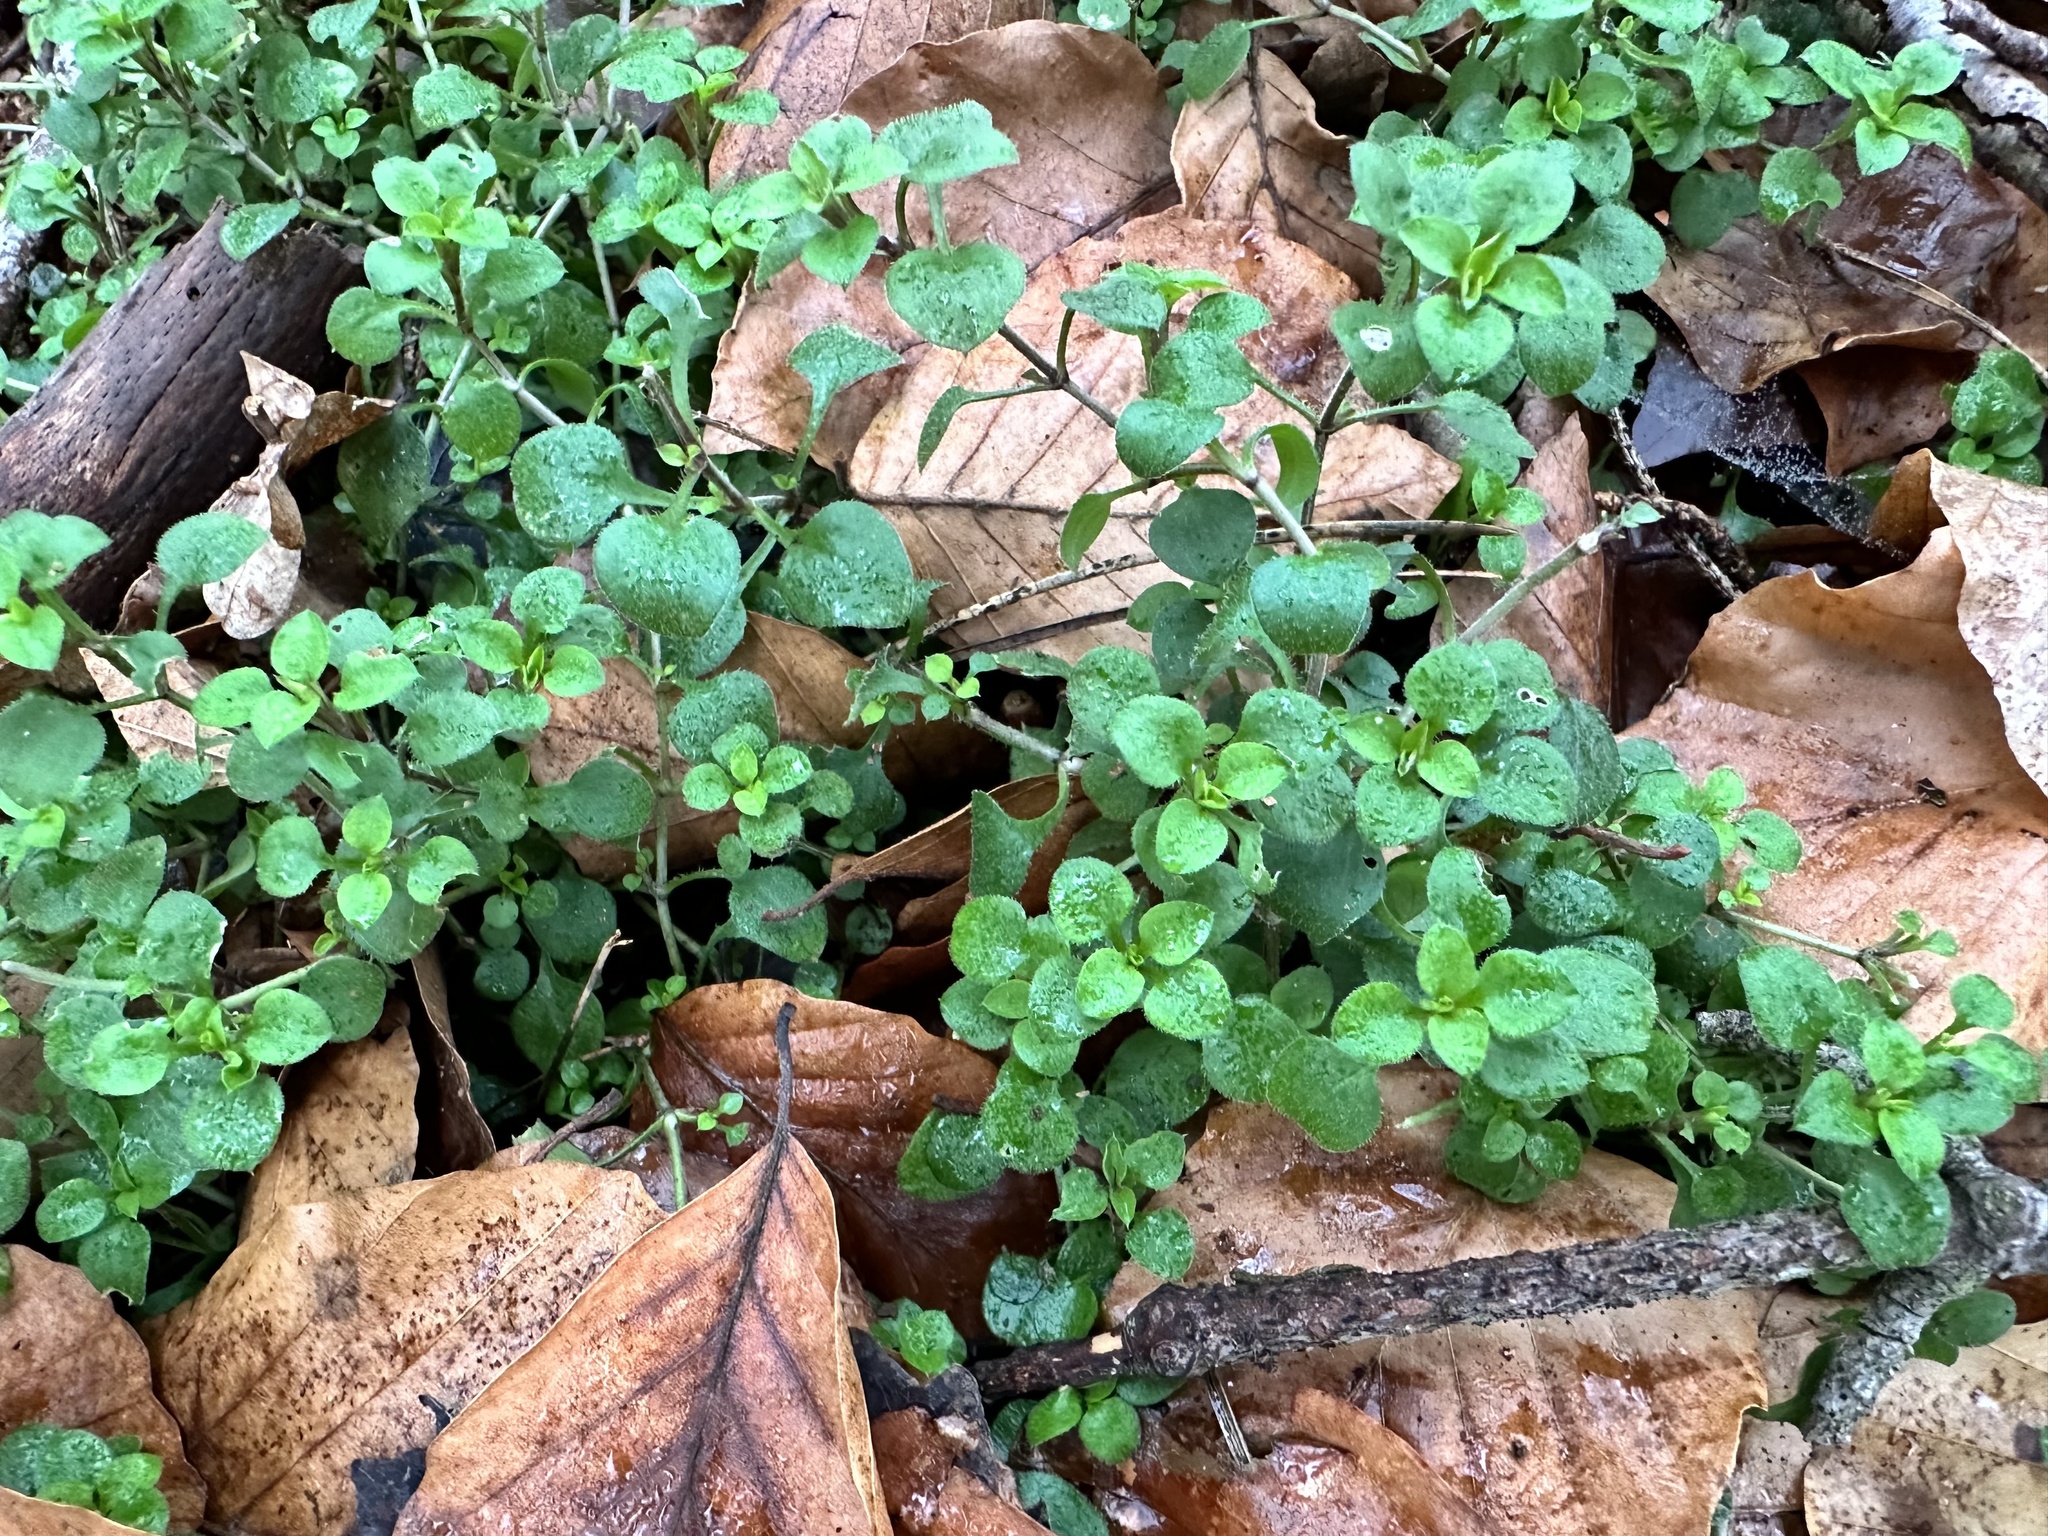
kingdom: Plantae
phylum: Tracheophyta
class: Magnoliopsida
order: Caryophyllales
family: Caryophyllaceae
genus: Moehringia
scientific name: Moehringia trinervia
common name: Three-nerved sandwort
